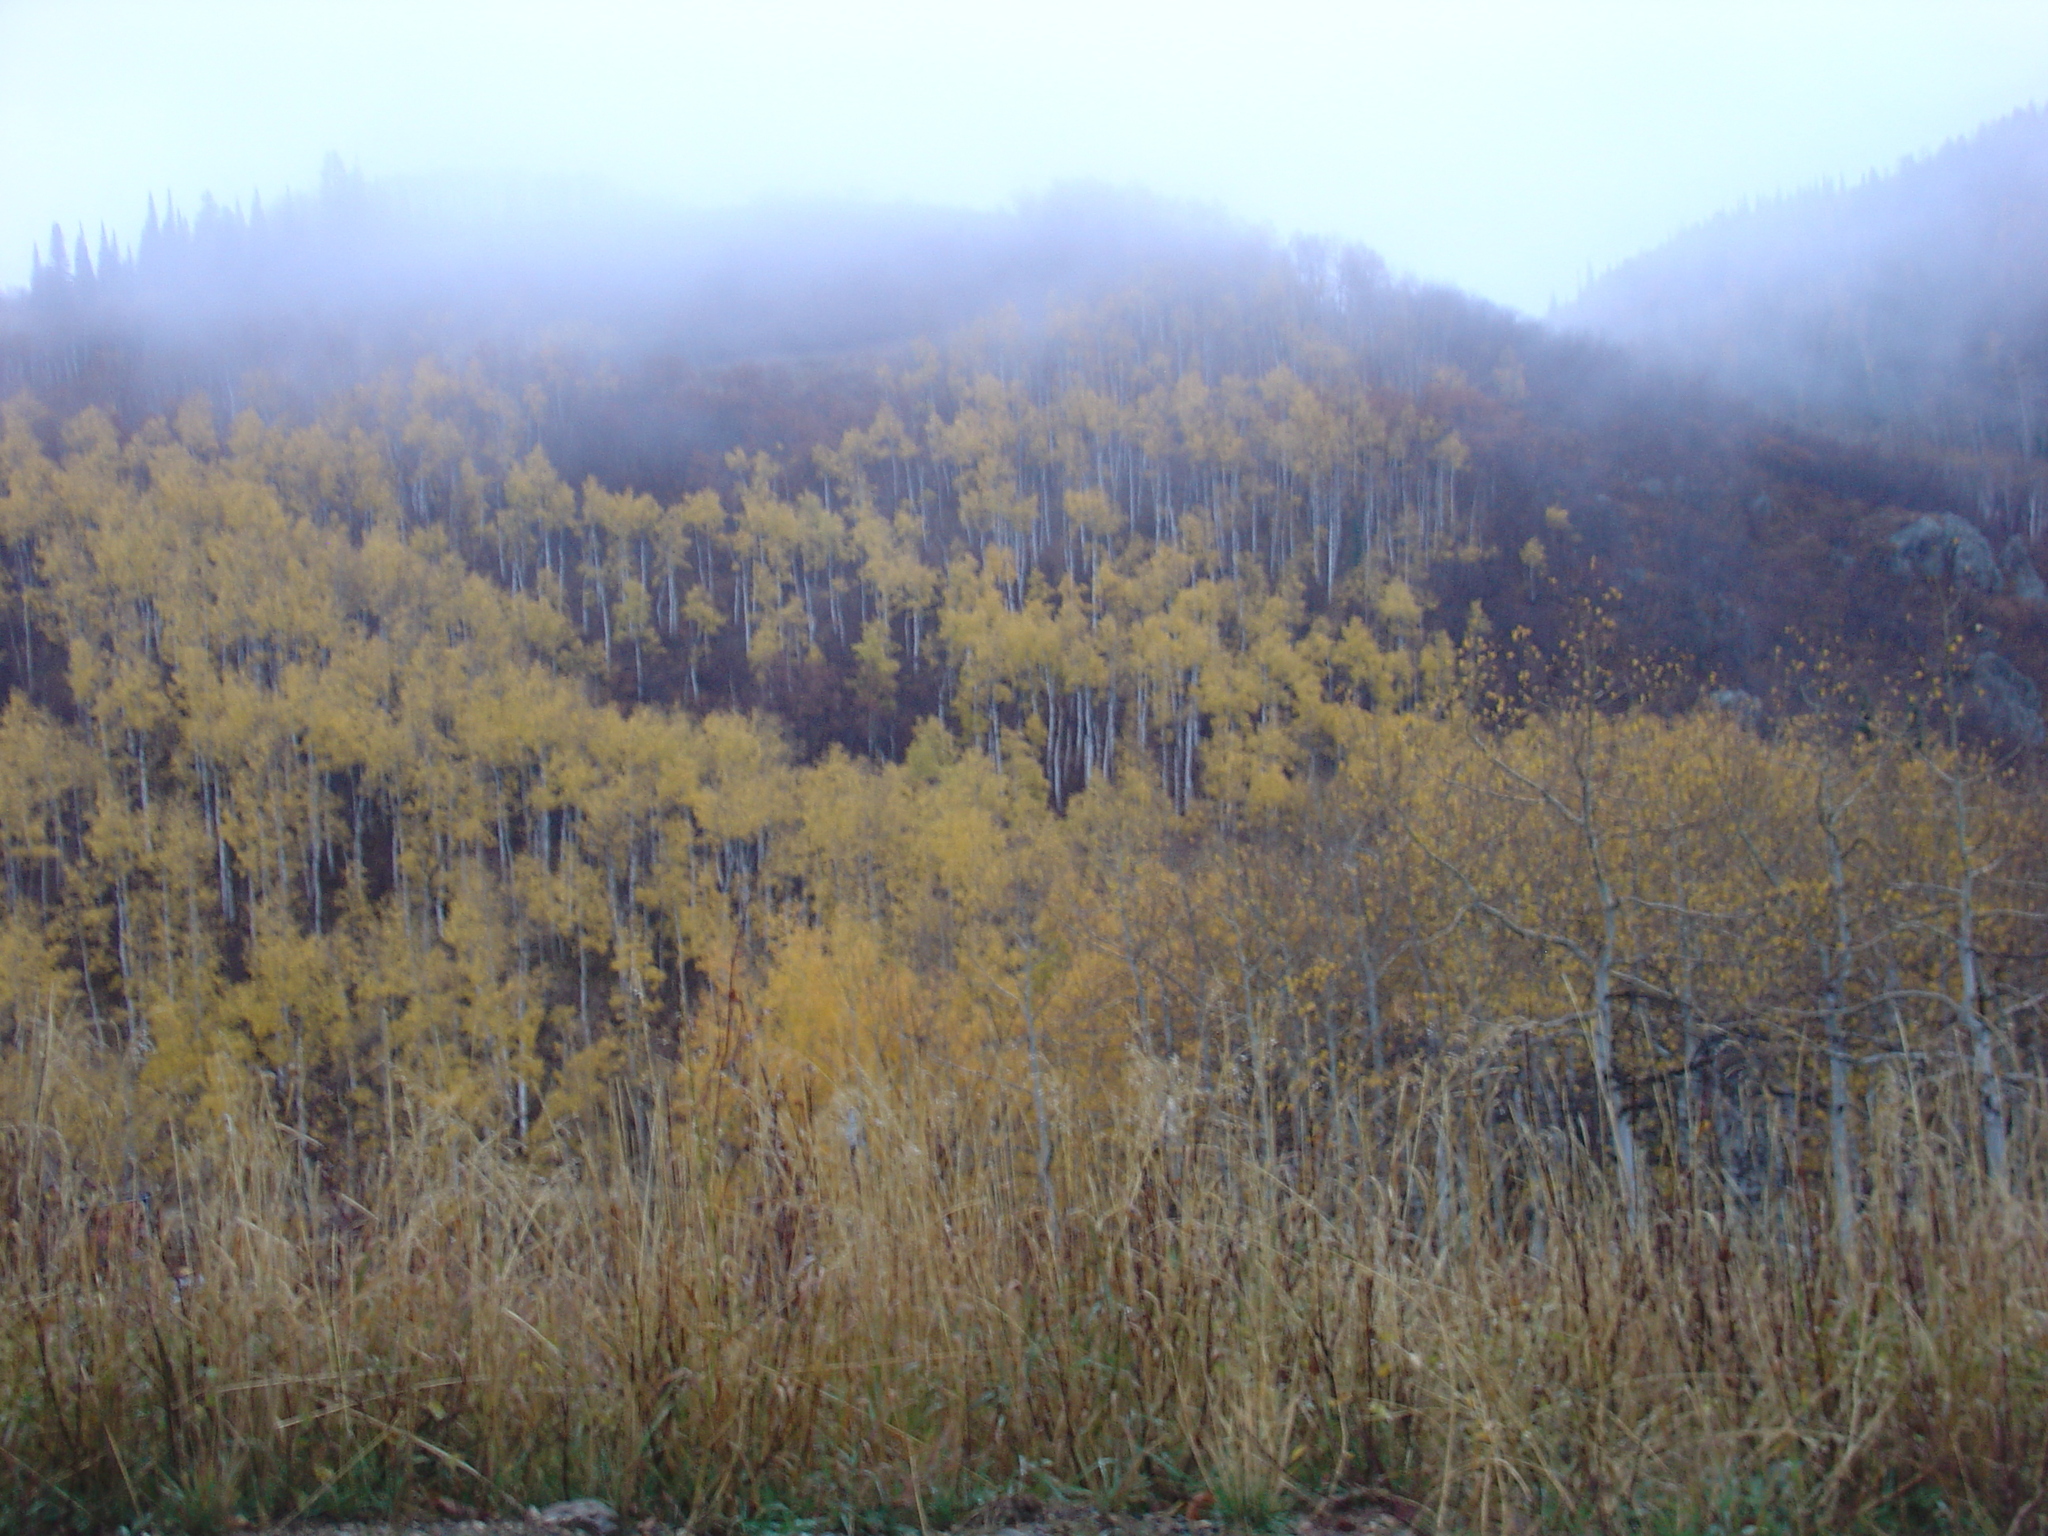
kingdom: Plantae
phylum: Tracheophyta
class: Magnoliopsida
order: Malpighiales
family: Salicaceae
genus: Populus
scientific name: Populus tremuloides
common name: Quaking aspen
